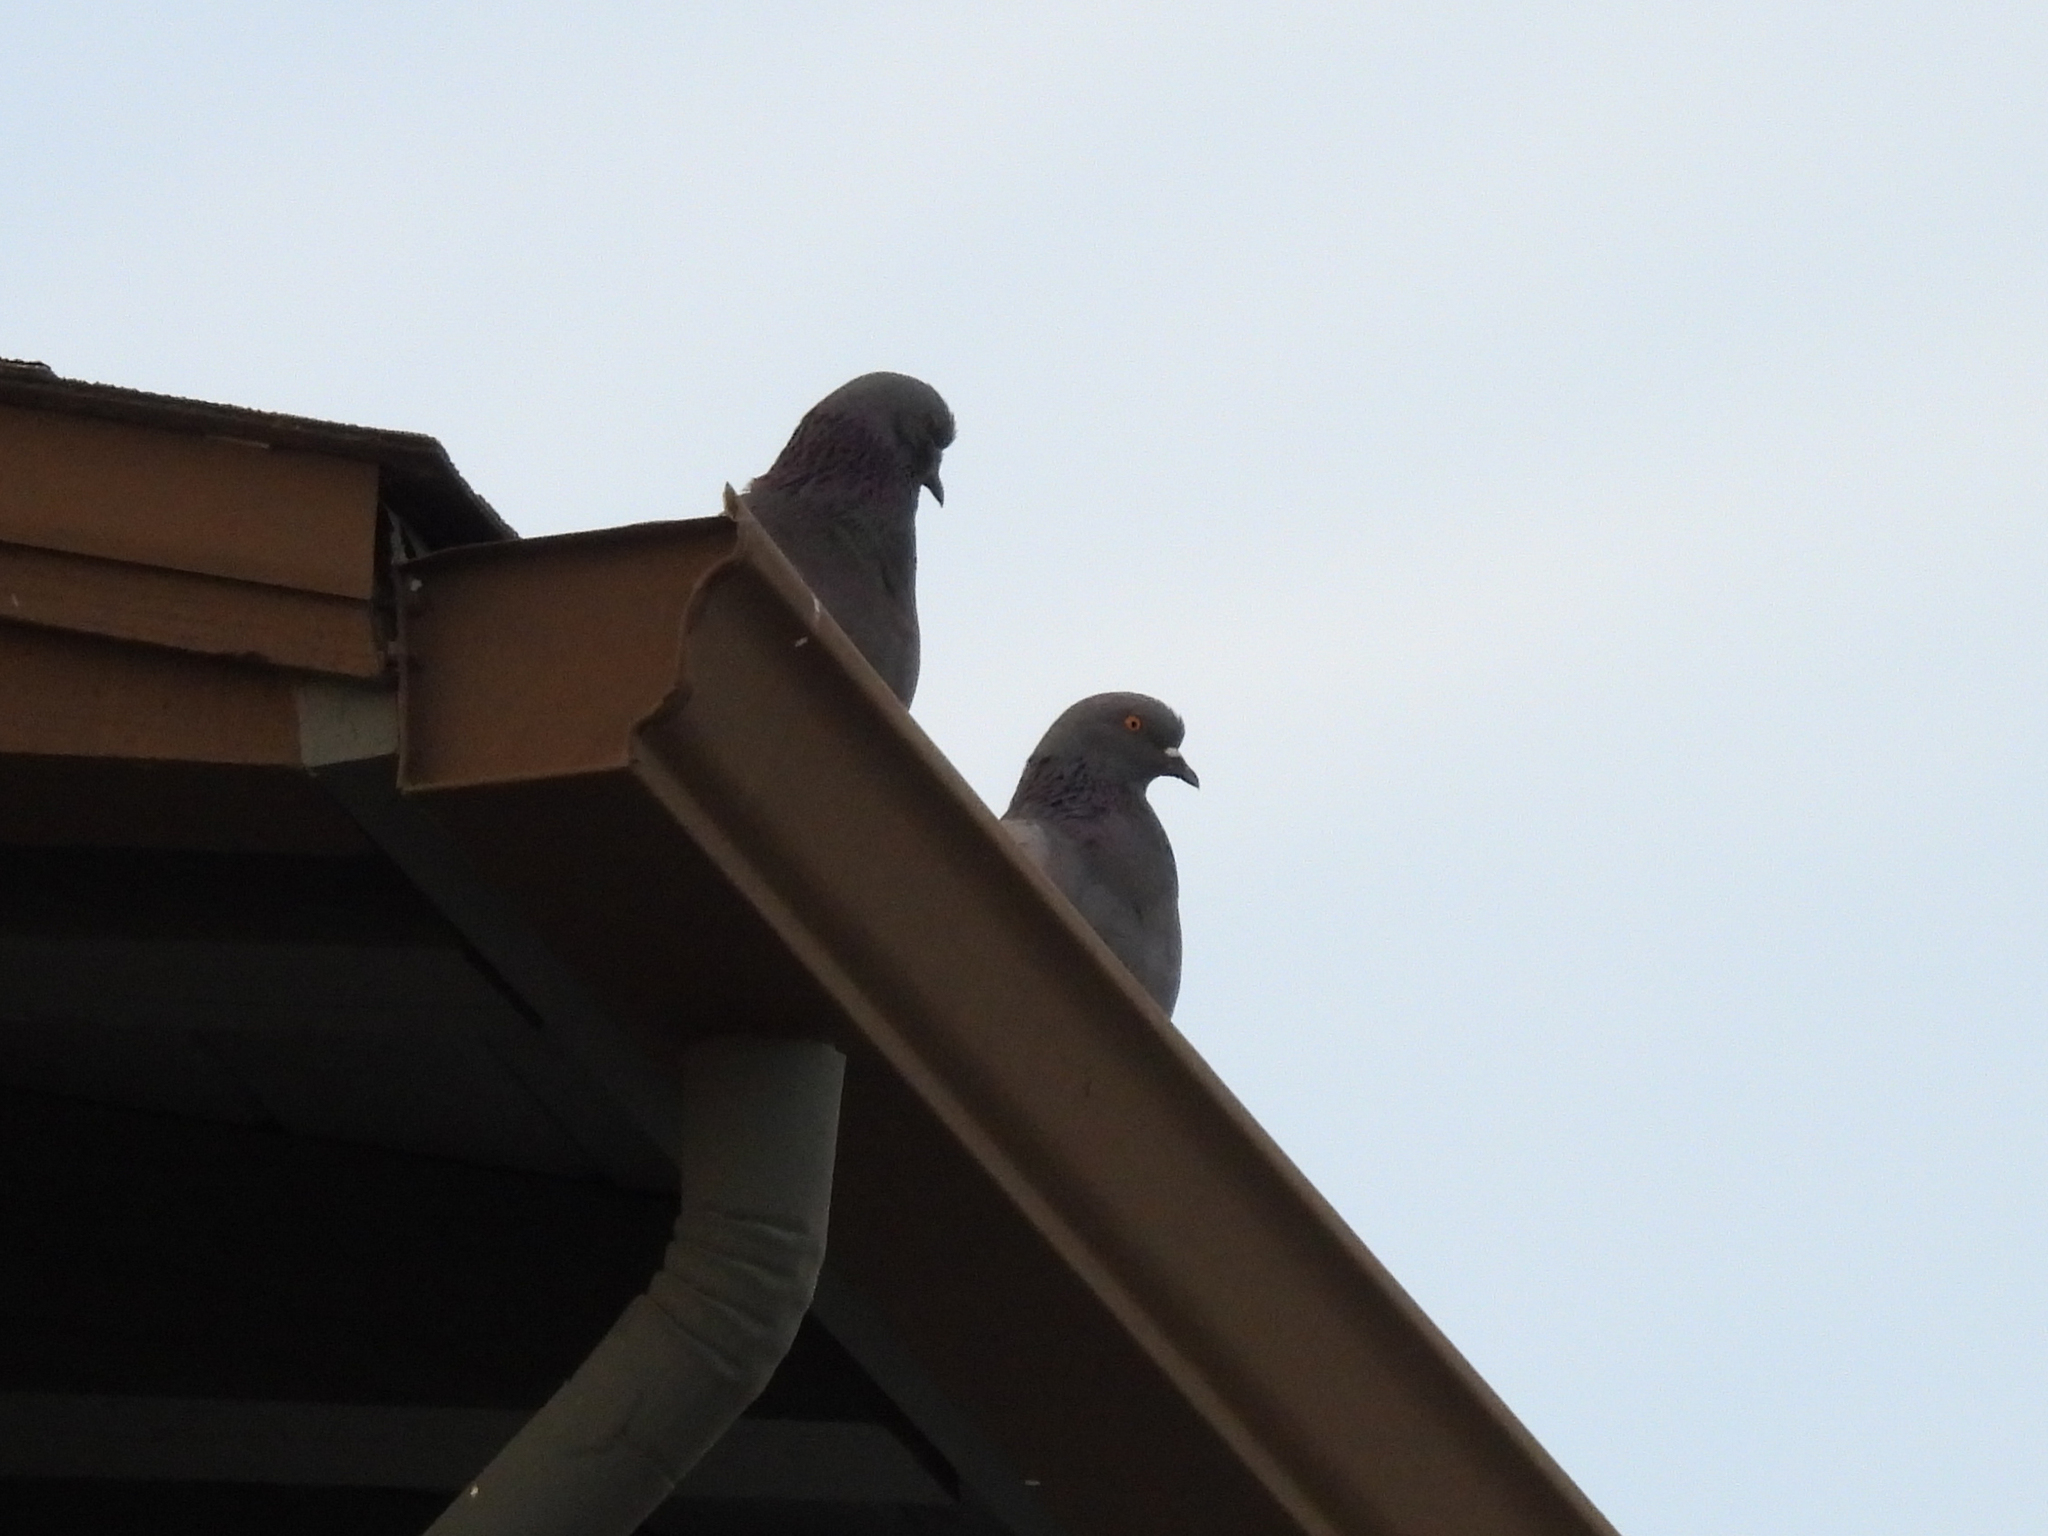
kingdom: Animalia
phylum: Chordata
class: Aves
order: Columbiformes
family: Columbidae
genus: Columba
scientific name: Columba livia
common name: Rock pigeon
